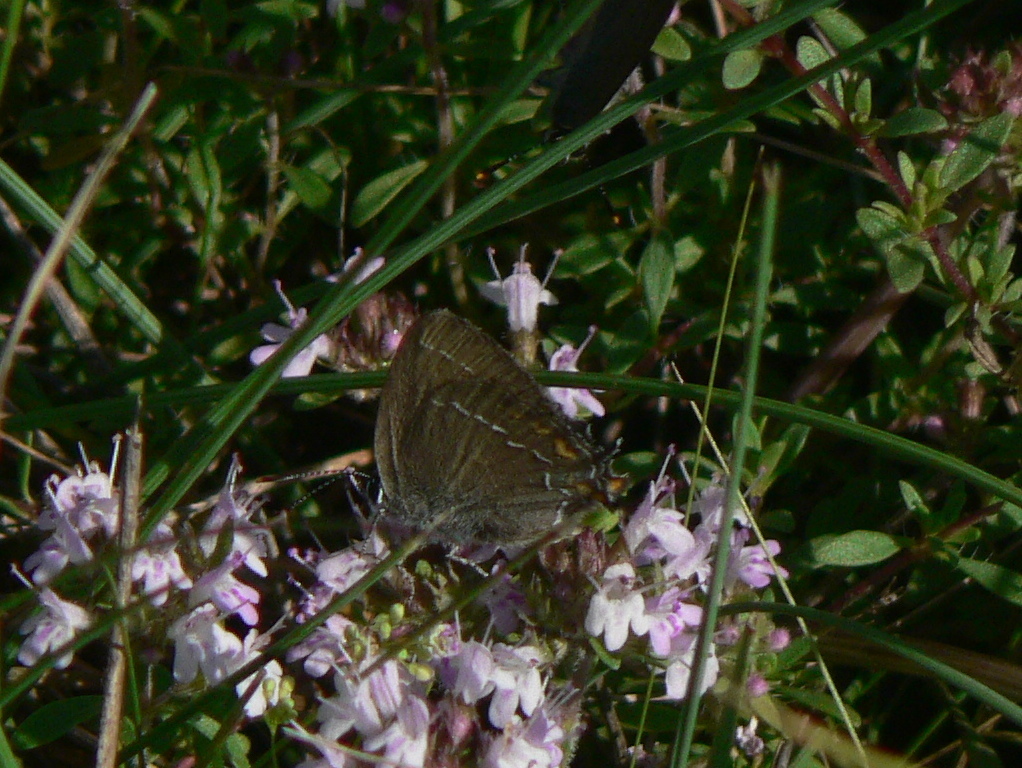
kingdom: Animalia
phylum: Arthropoda
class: Insecta
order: Lepidoptera
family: Lycaenidae
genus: Nordmannia
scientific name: Nordmannia ilicis
